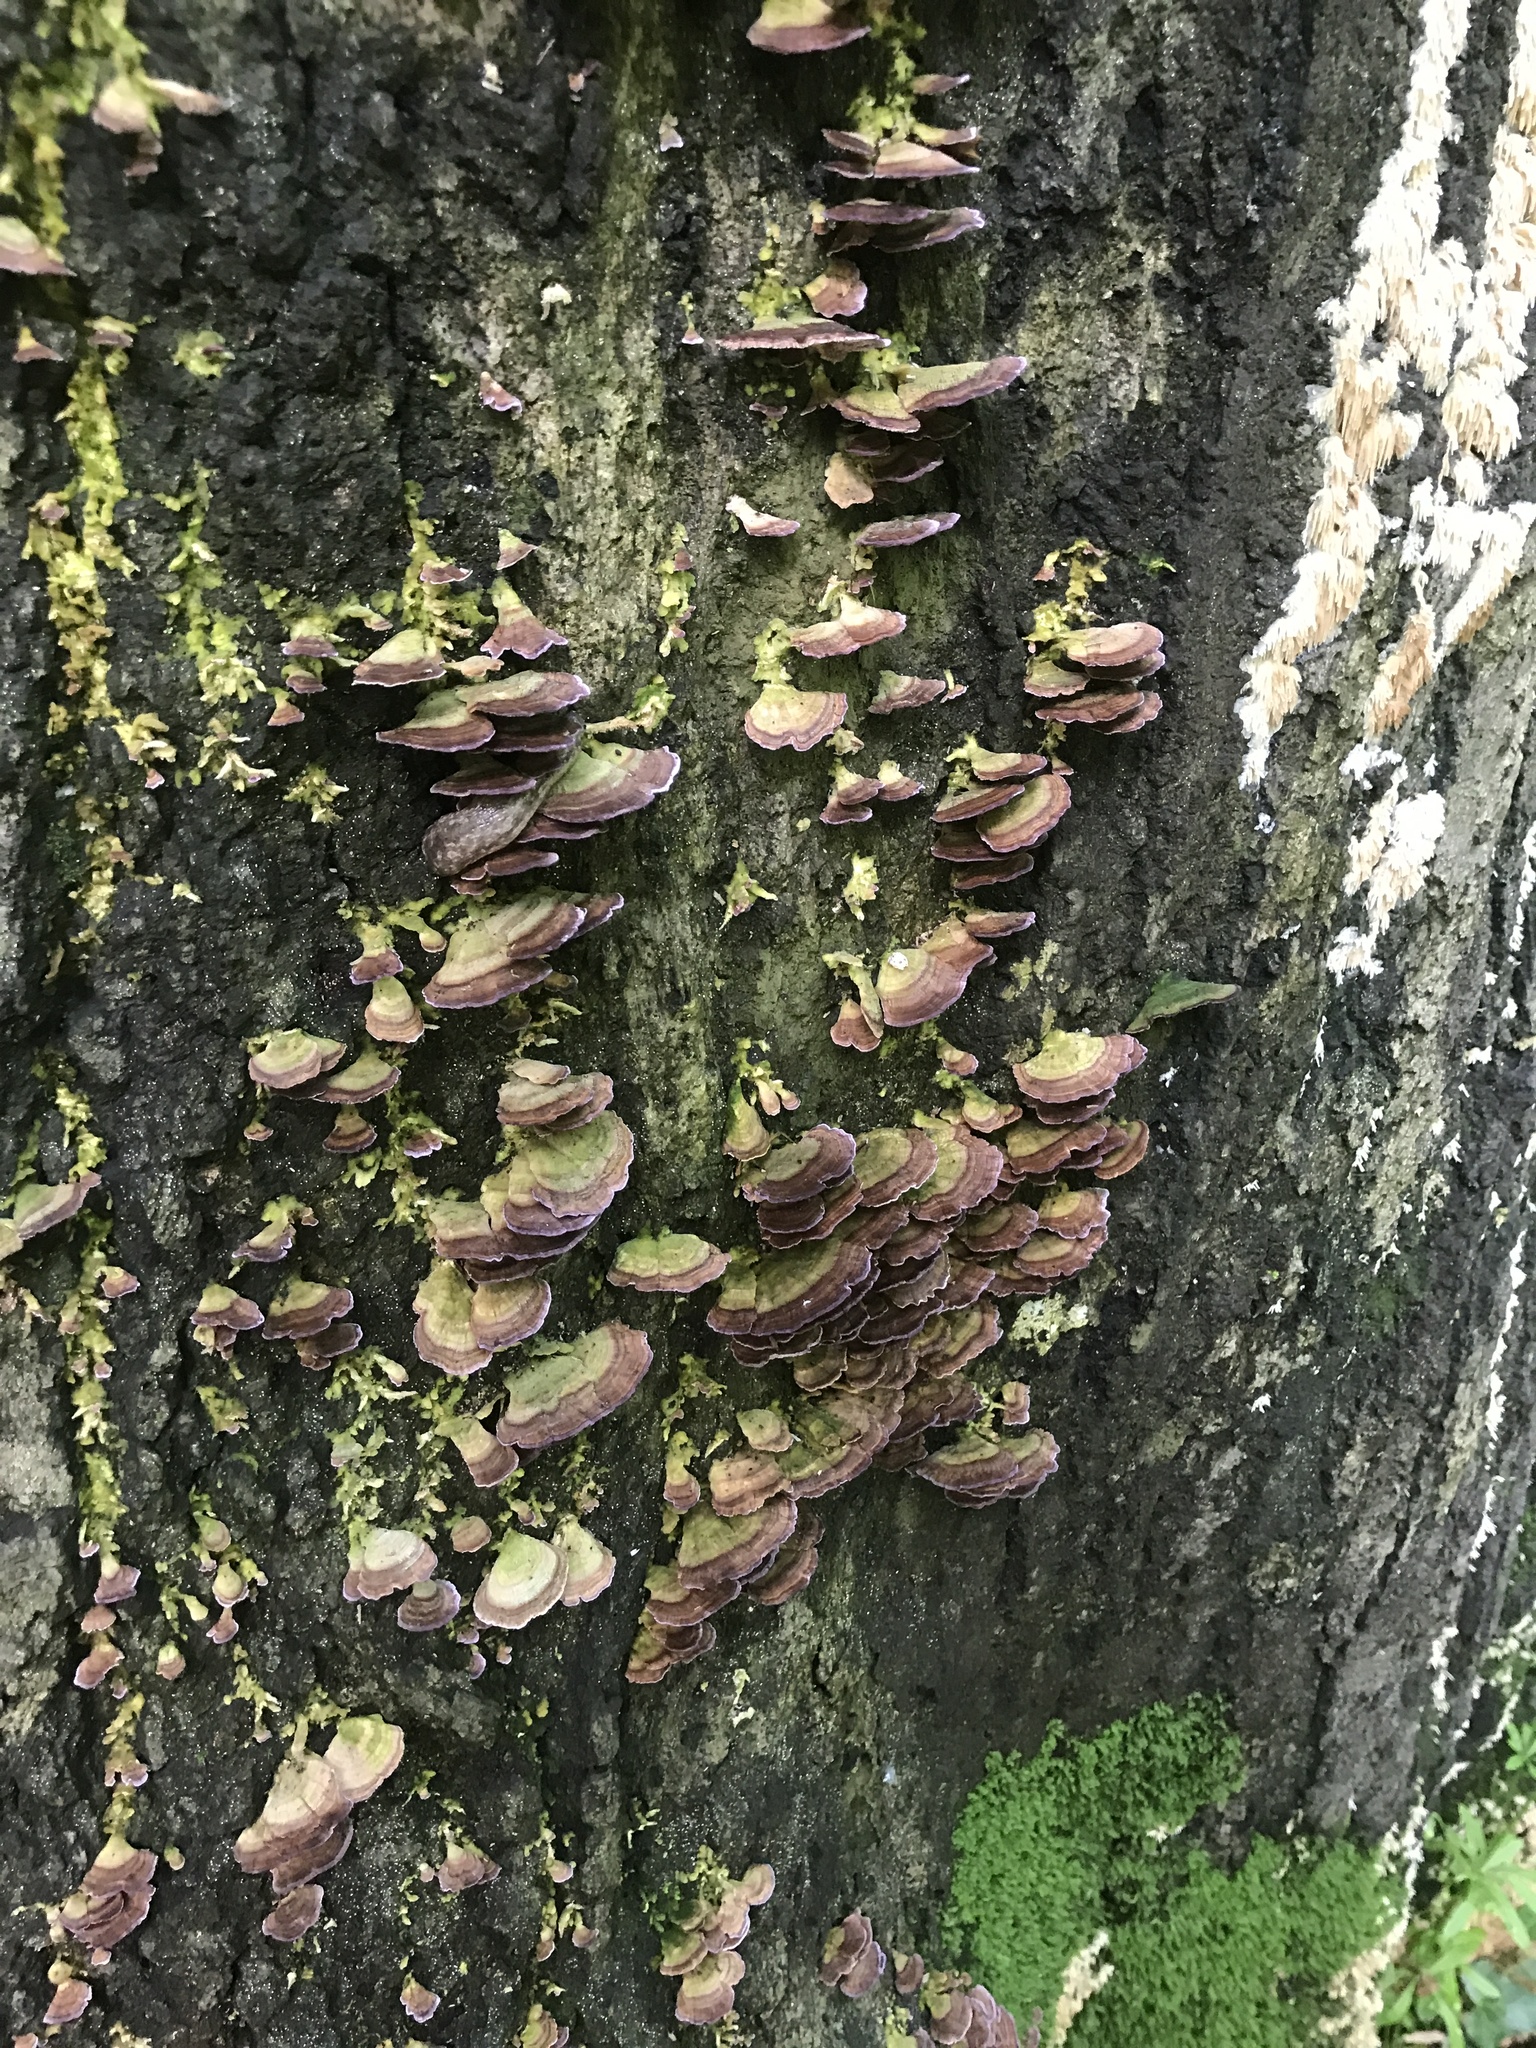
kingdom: Fungi
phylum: Basidiomycota
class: Agaricomycetes
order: Hymenochaetales
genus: Trichaptum
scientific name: Trichaptum biforme
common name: Violet-toothed polypore
